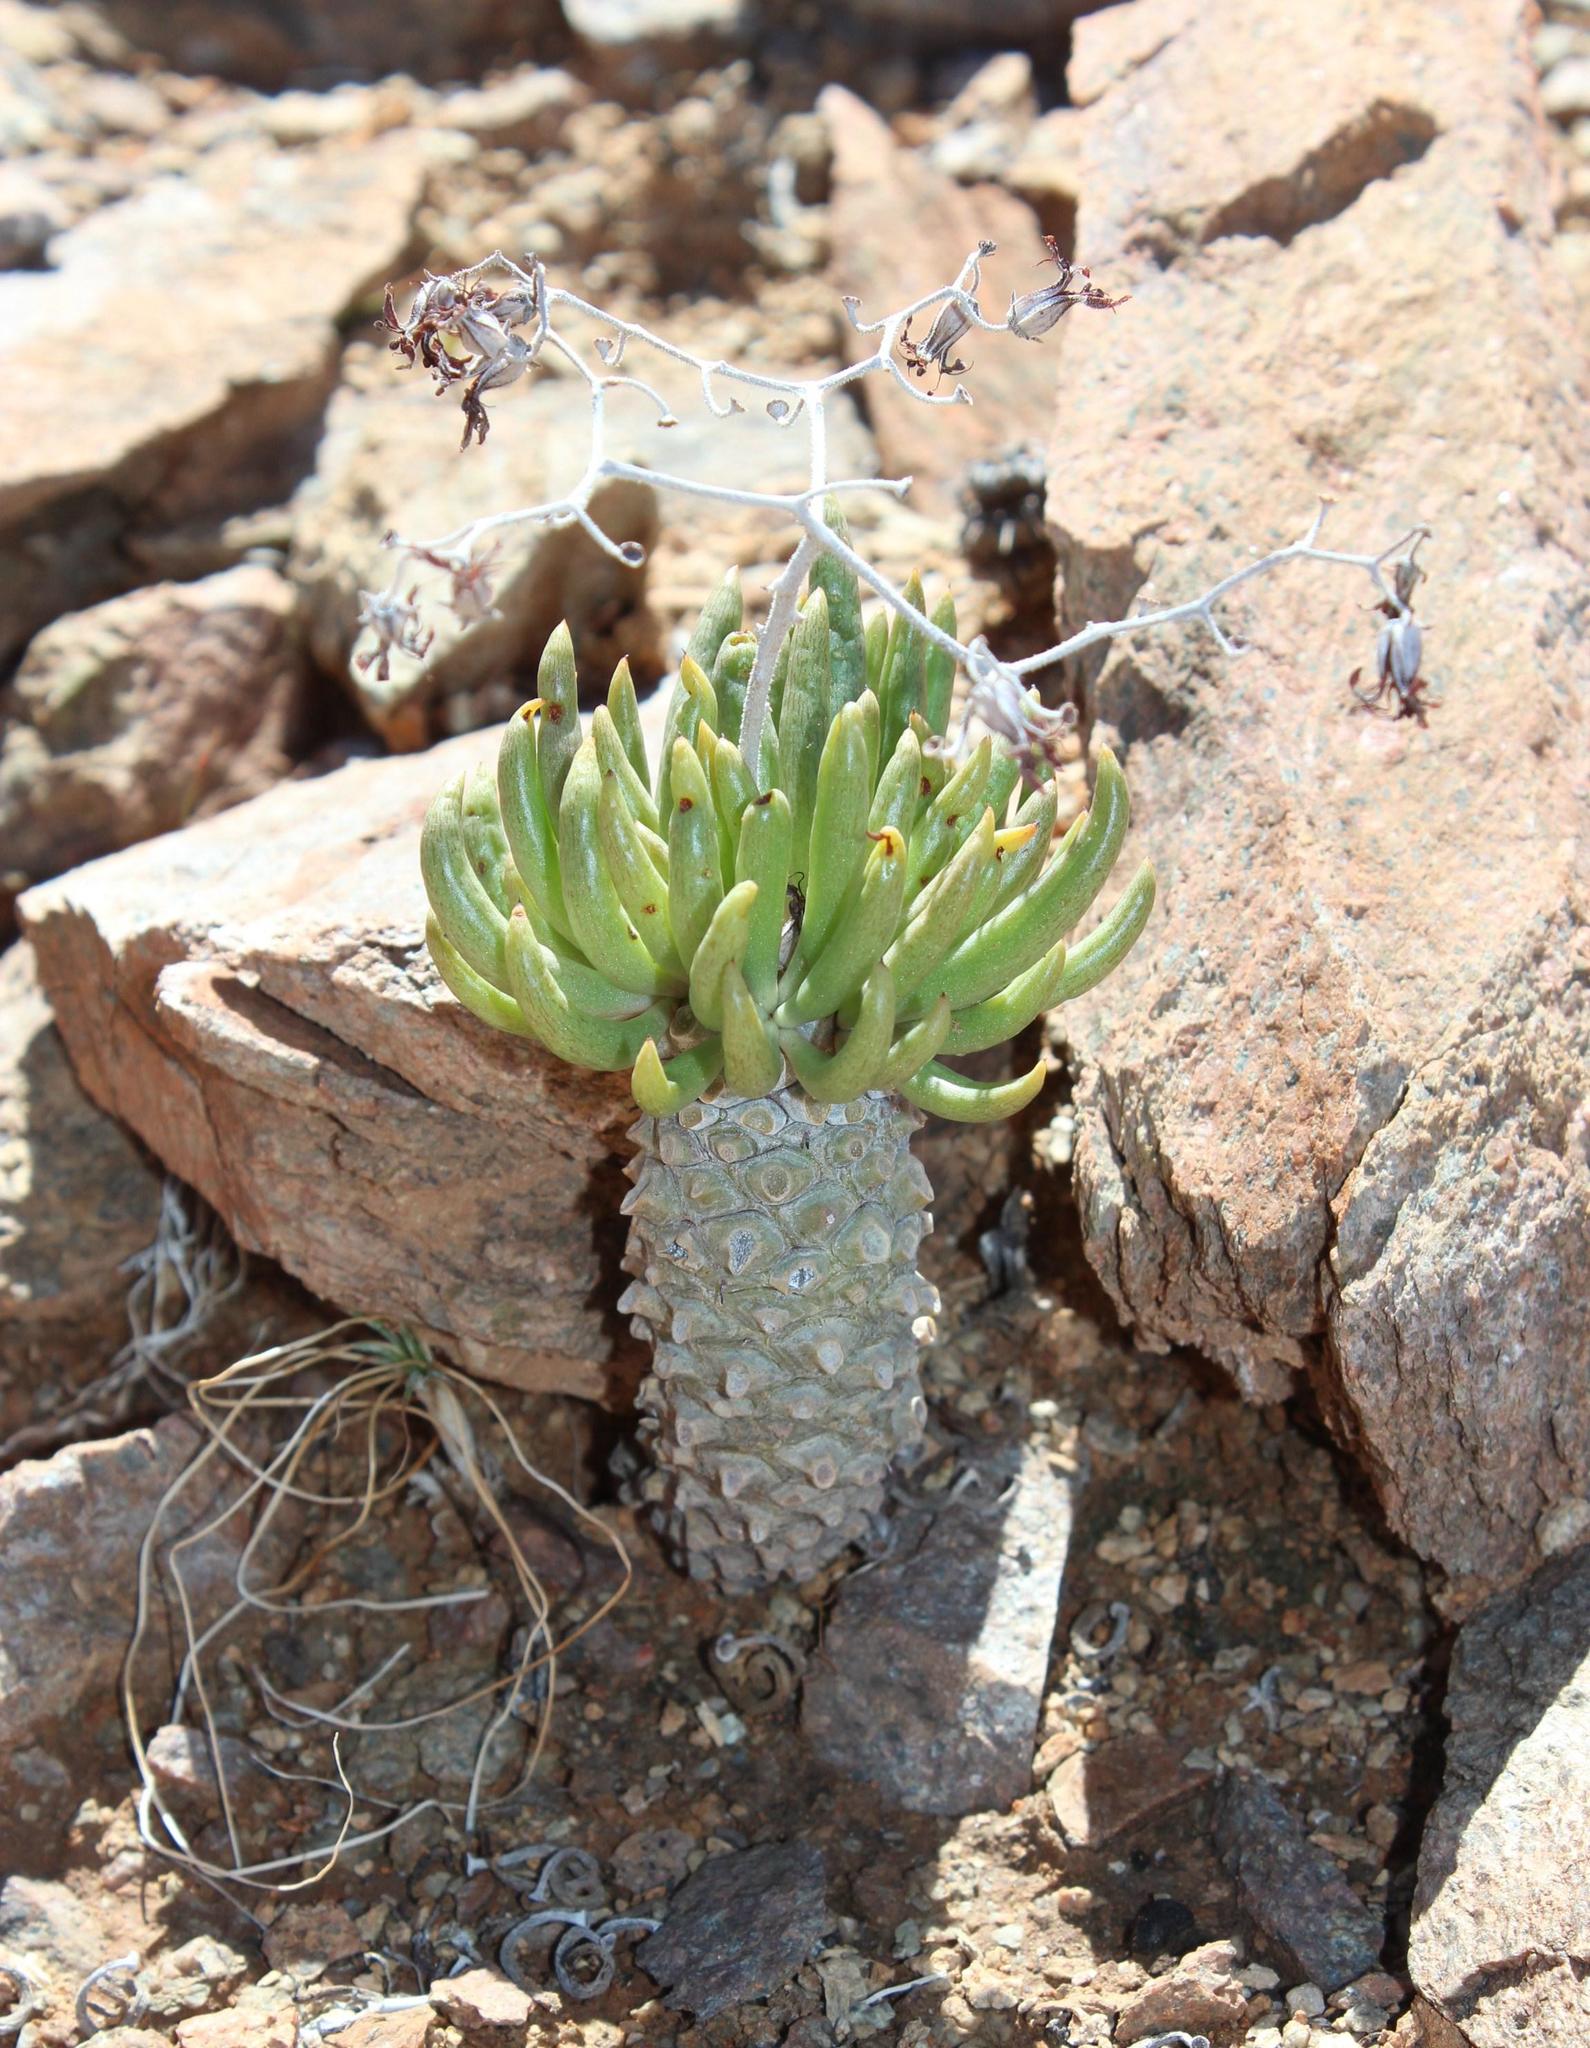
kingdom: Plantae
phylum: Tracheophyta
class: Magnoliopsida
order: Saxifragales
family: Crassulaceae
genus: Tylecodon
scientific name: Tylecodon wallichii
